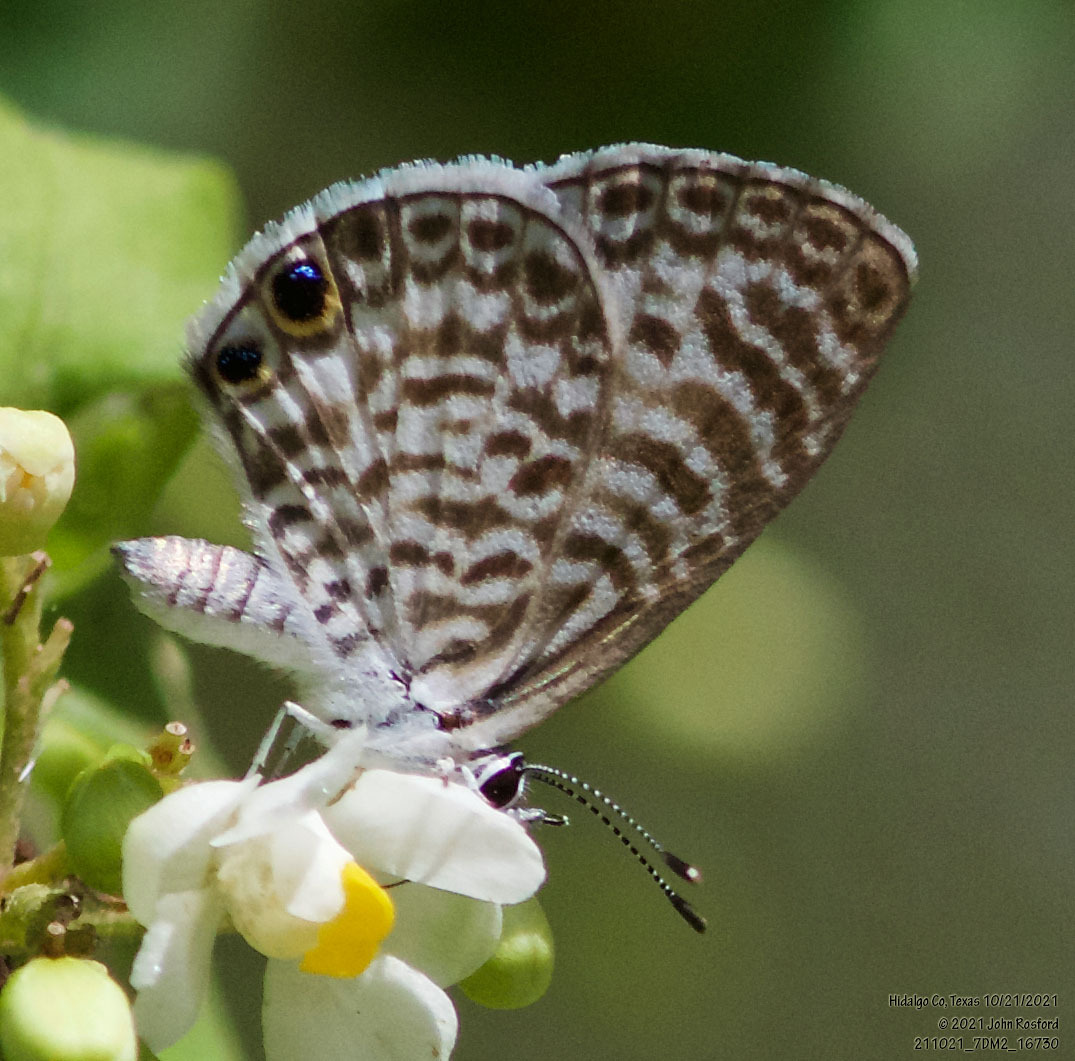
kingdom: Animalia
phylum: Arthropoda
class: Insecta
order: Lepidoptera
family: Lycaenidae
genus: Leptotes
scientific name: Leptotes cassius
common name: Cassius blue
